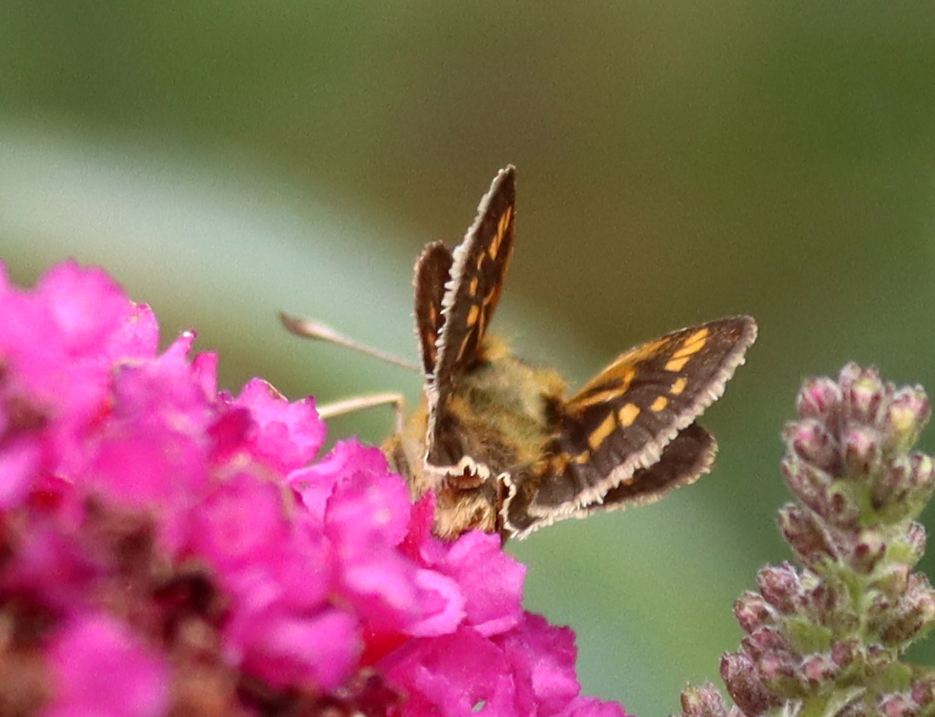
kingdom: Animalia
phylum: Arthropoda
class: Insecta
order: Lepidoptera
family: Hesperiidae
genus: Polites
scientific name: Polites coras
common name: Peck's skipper
